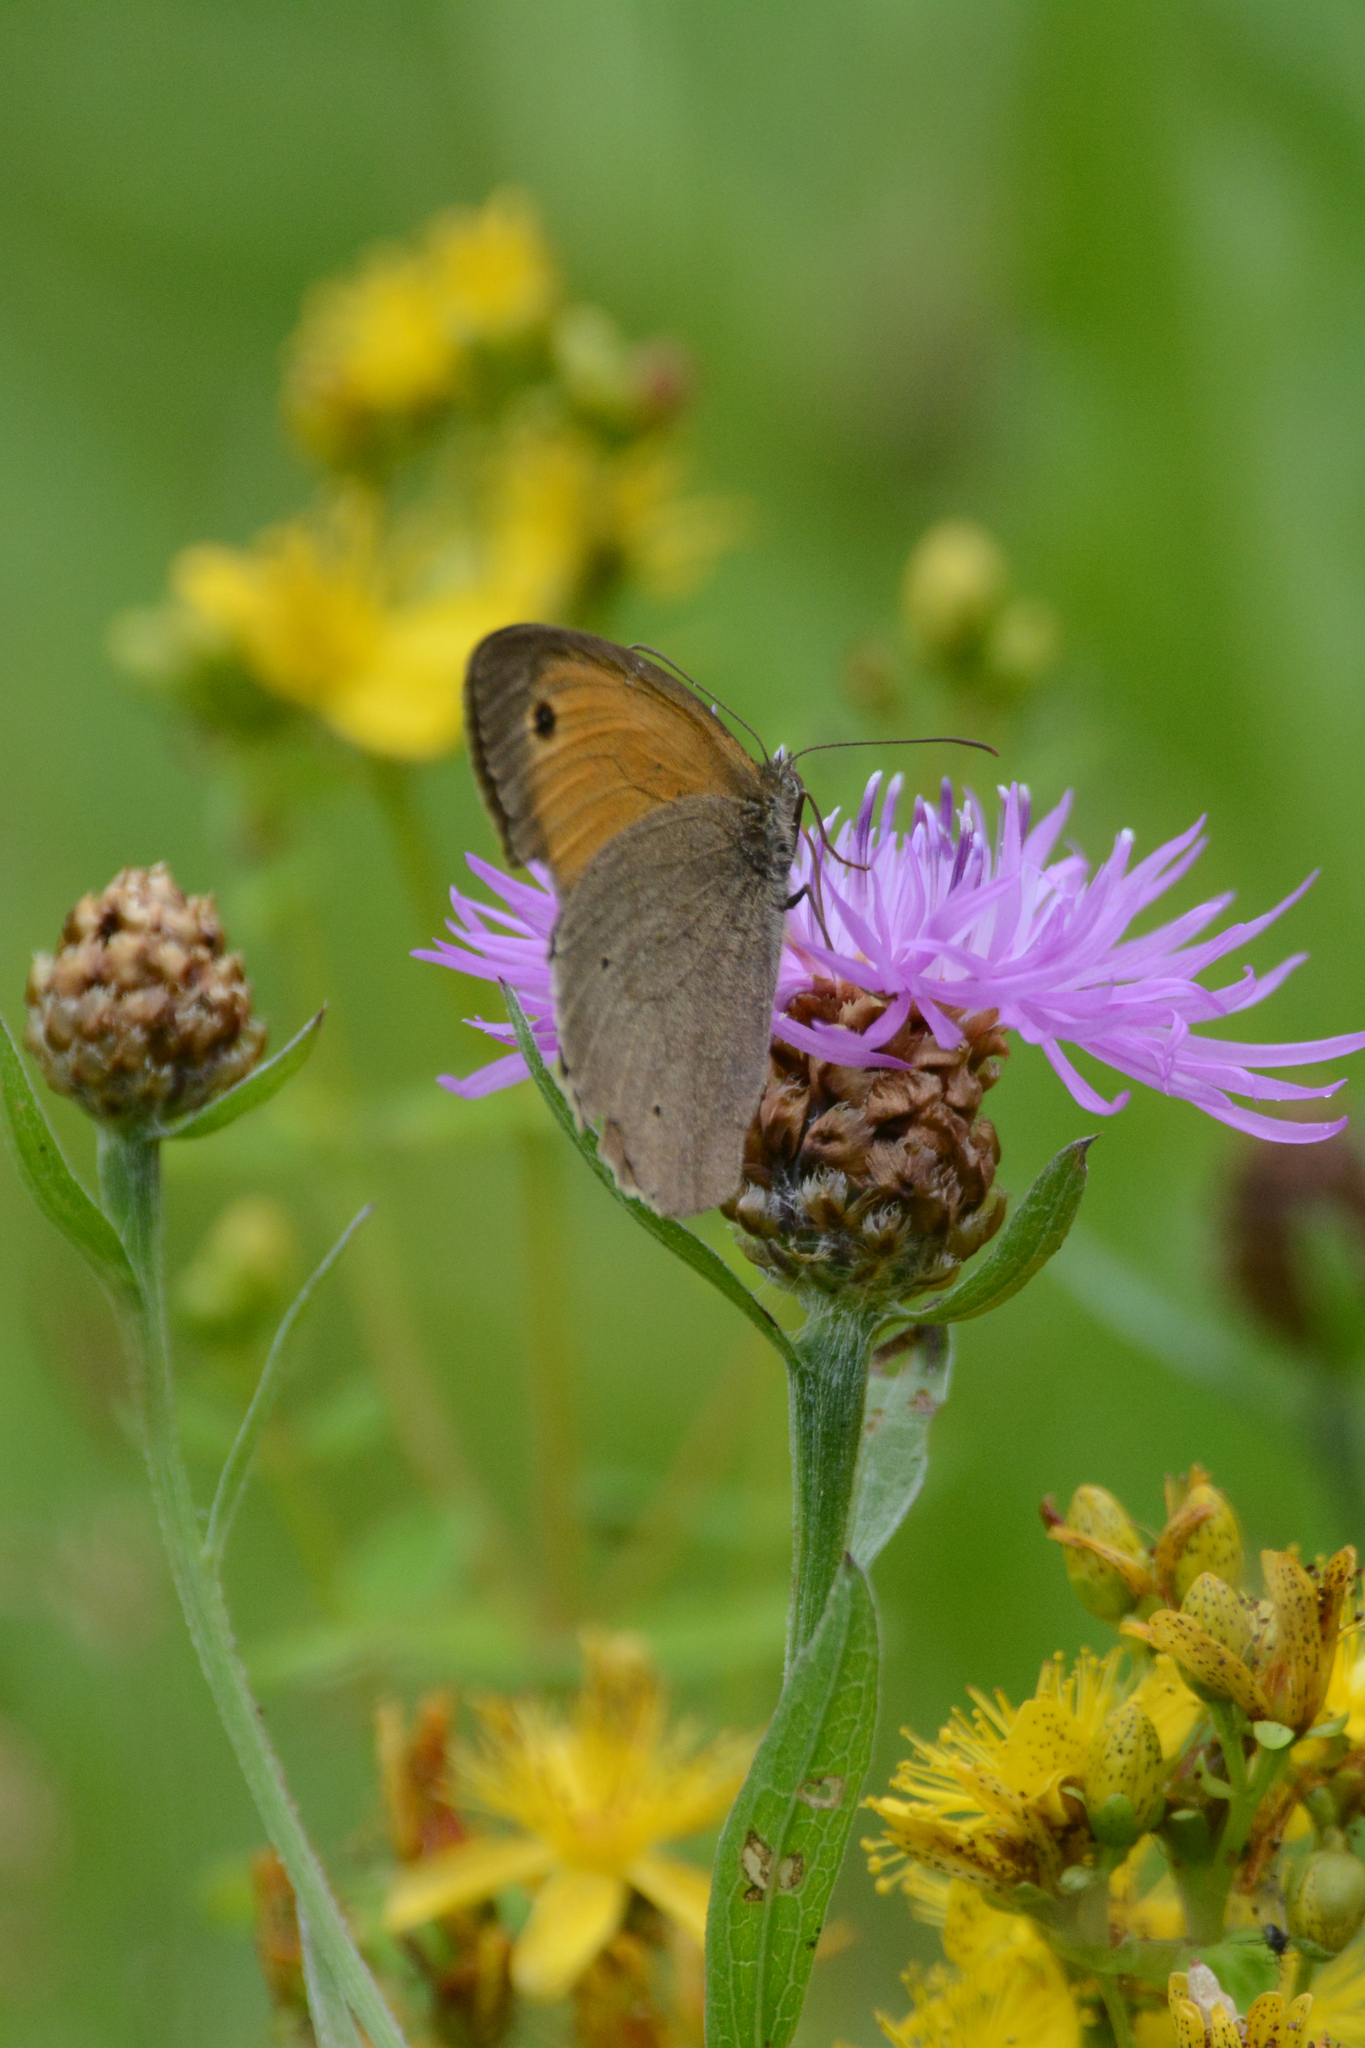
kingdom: Animalia
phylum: Arthropoda
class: Insecta
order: Lepidoptera
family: Nymphalidae
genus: Maniola
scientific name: Maniola jurtina
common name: Meadow brown
